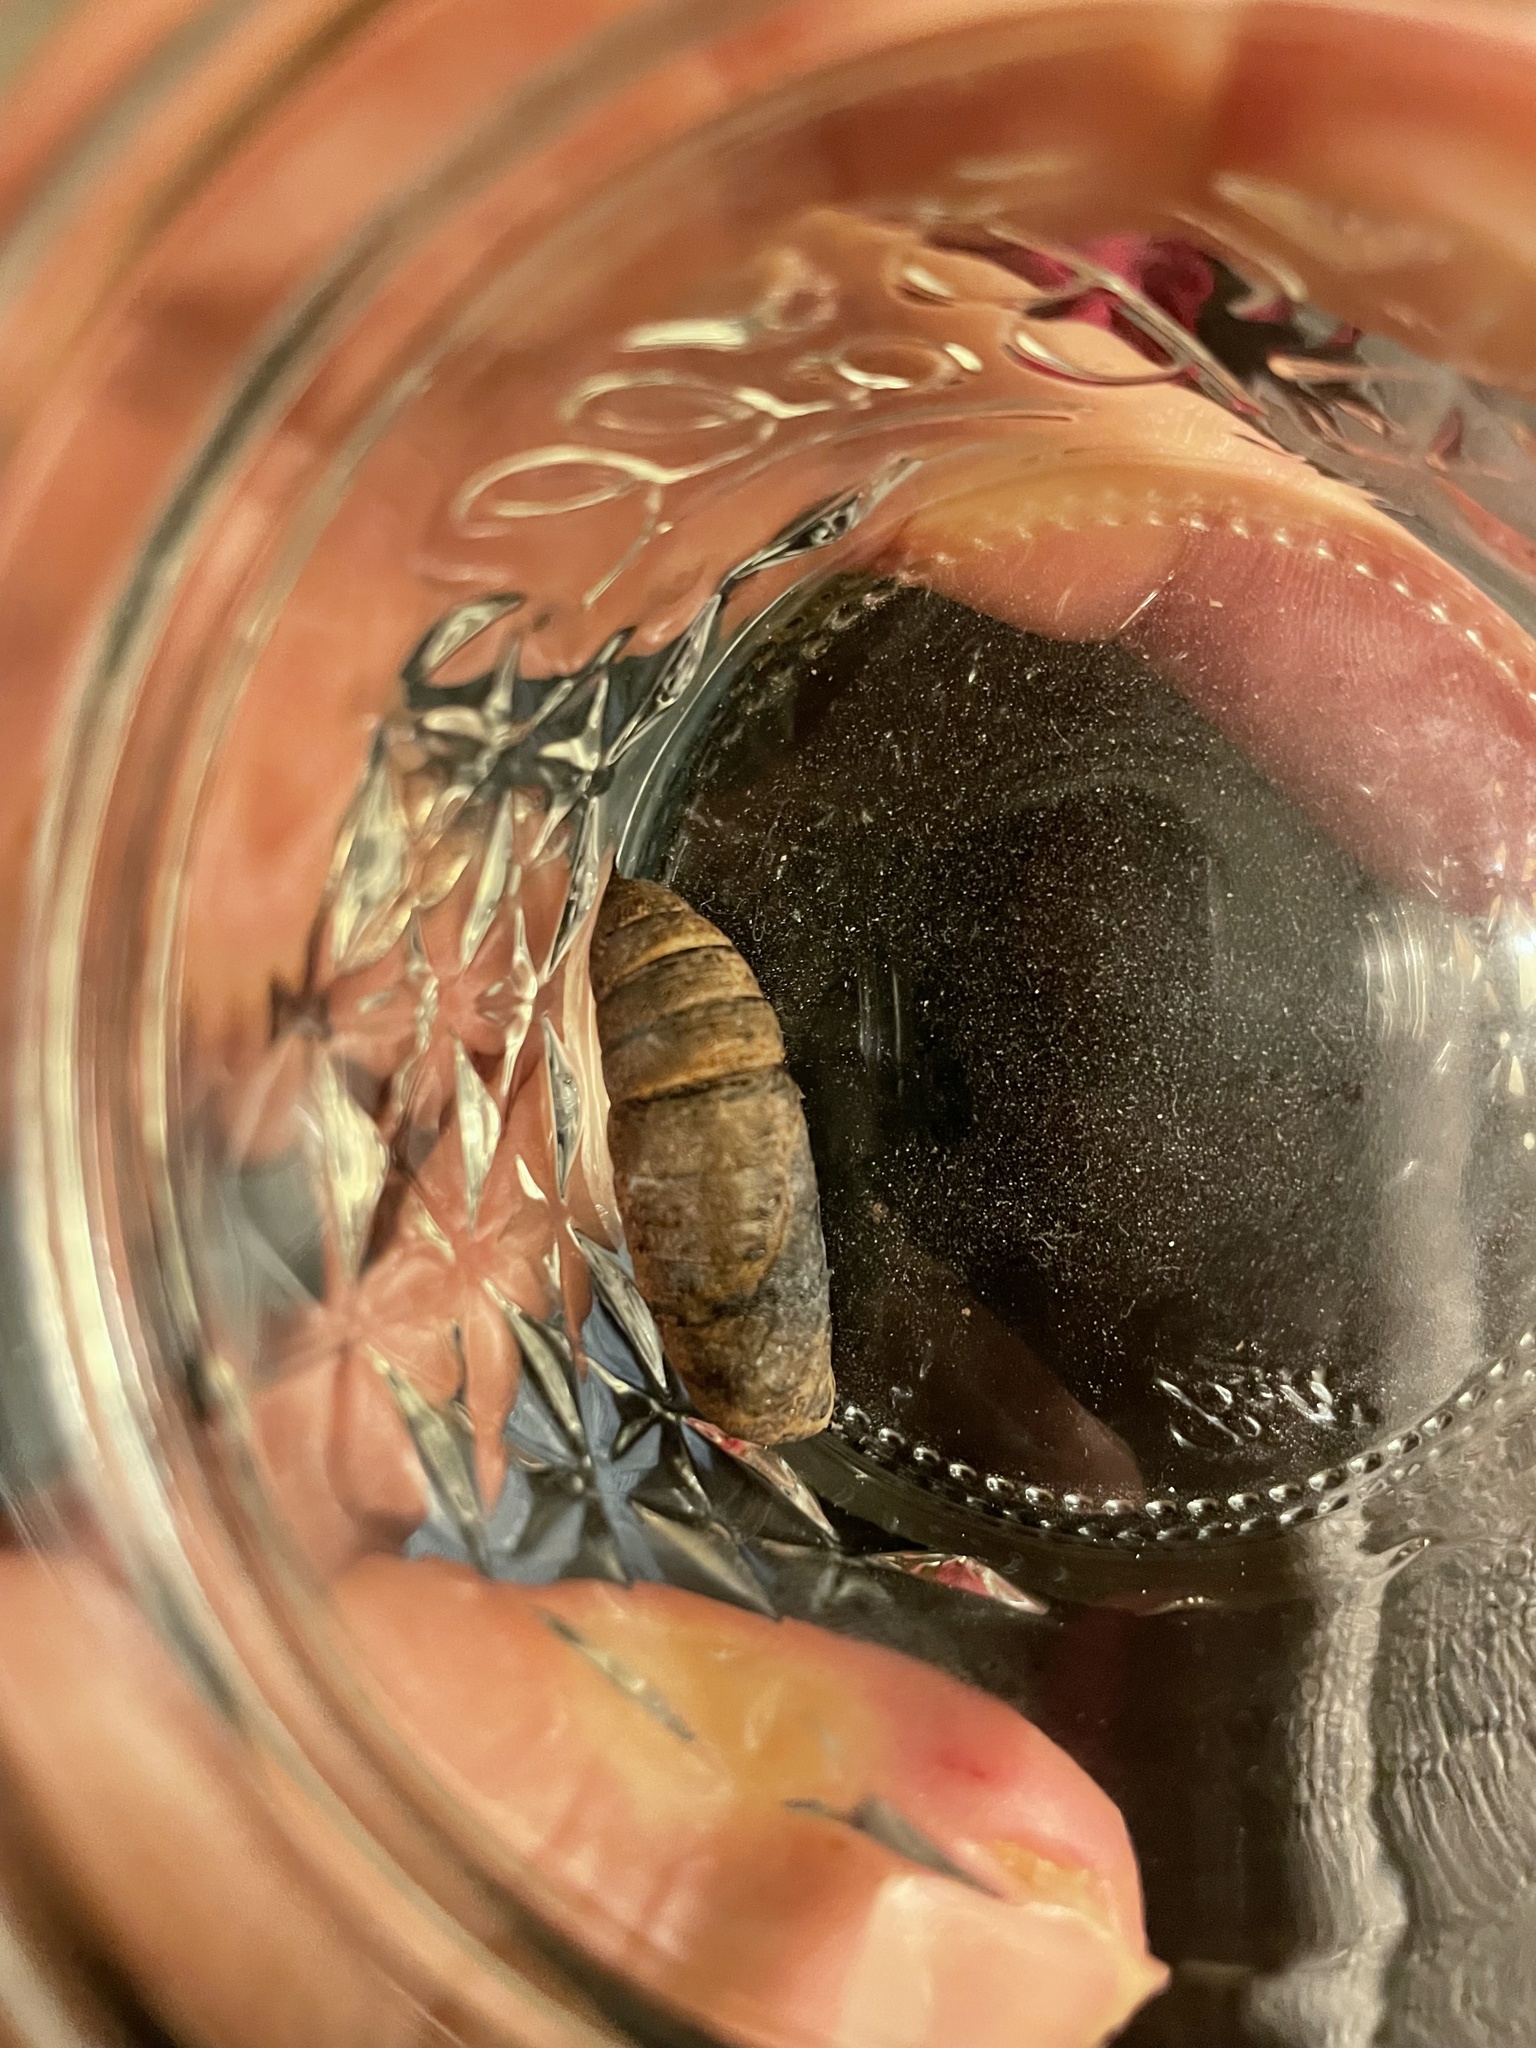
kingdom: Animalia
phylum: Arthropoda
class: Insecta
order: Lepidoptera
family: Sphingidae
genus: Darapsa
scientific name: Darapsa myron
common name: Hog sphinx
